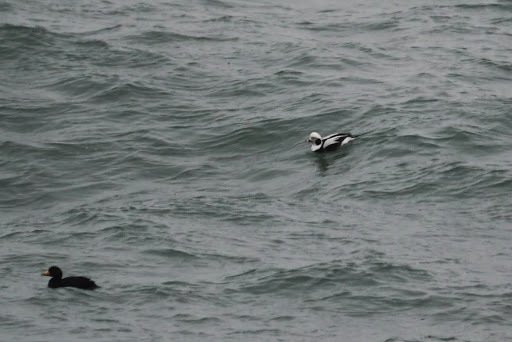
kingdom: Animalia
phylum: Chordata
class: Aves
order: Anseriformes
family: Anatidae
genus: Clangula
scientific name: Clangula hyemalis
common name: Long-tailed duck
